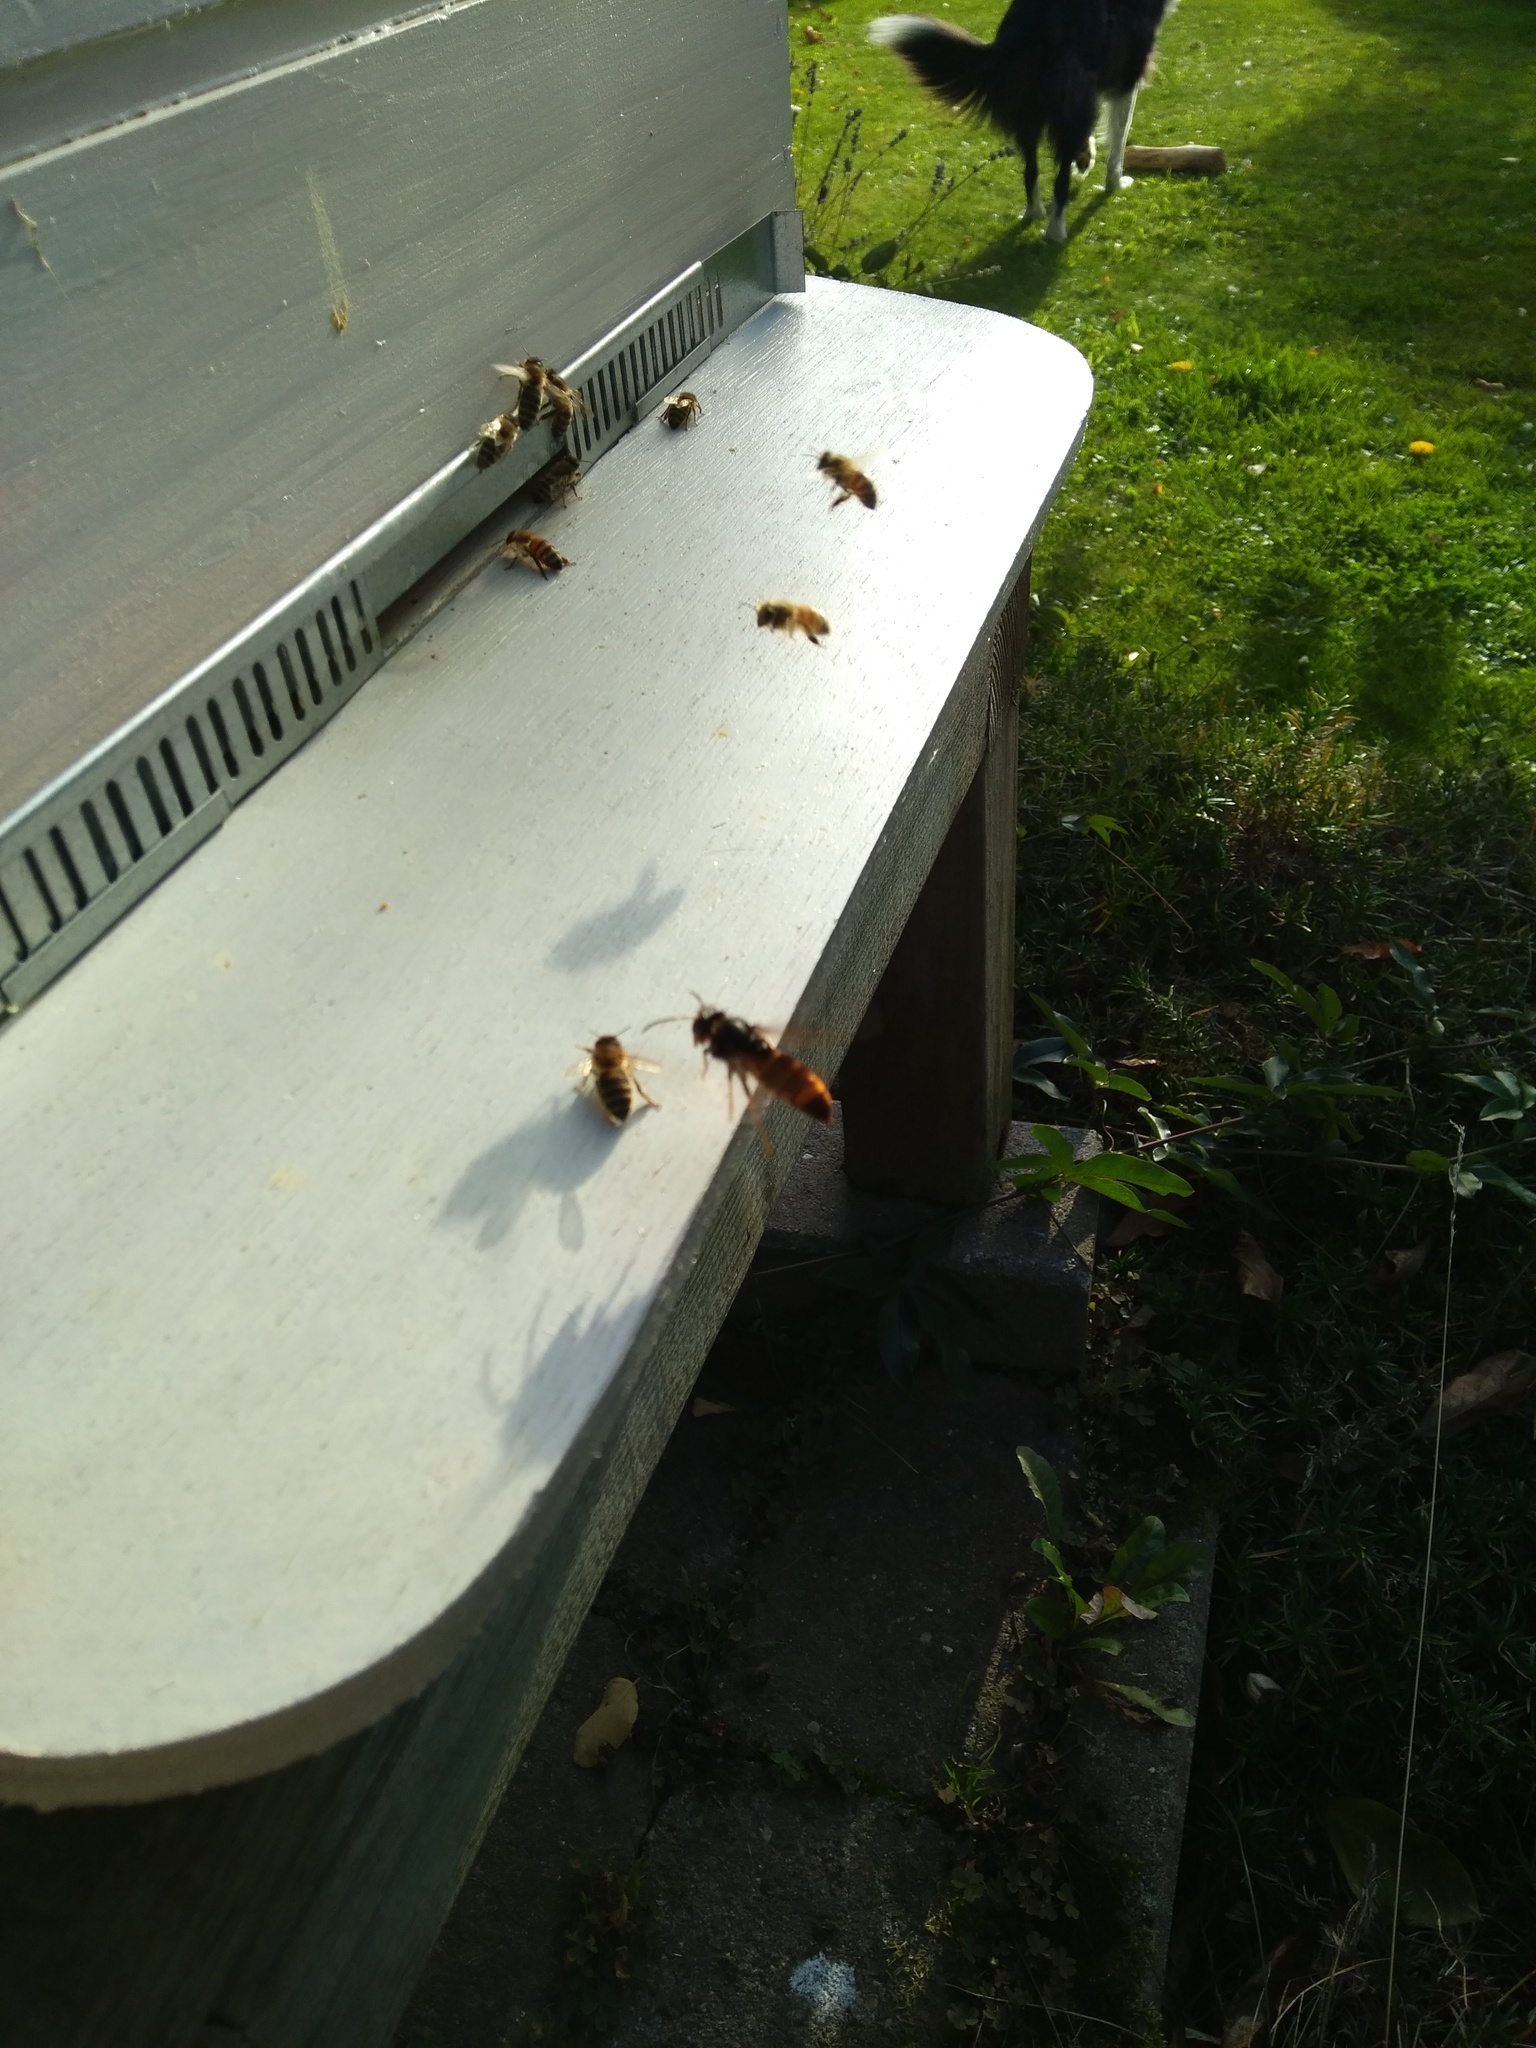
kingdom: Animalia
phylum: Arthropoda
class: Insecta
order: Hymenoptera
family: Vespidae
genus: Vespa
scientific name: Vespa velutina
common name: Asian hornet
